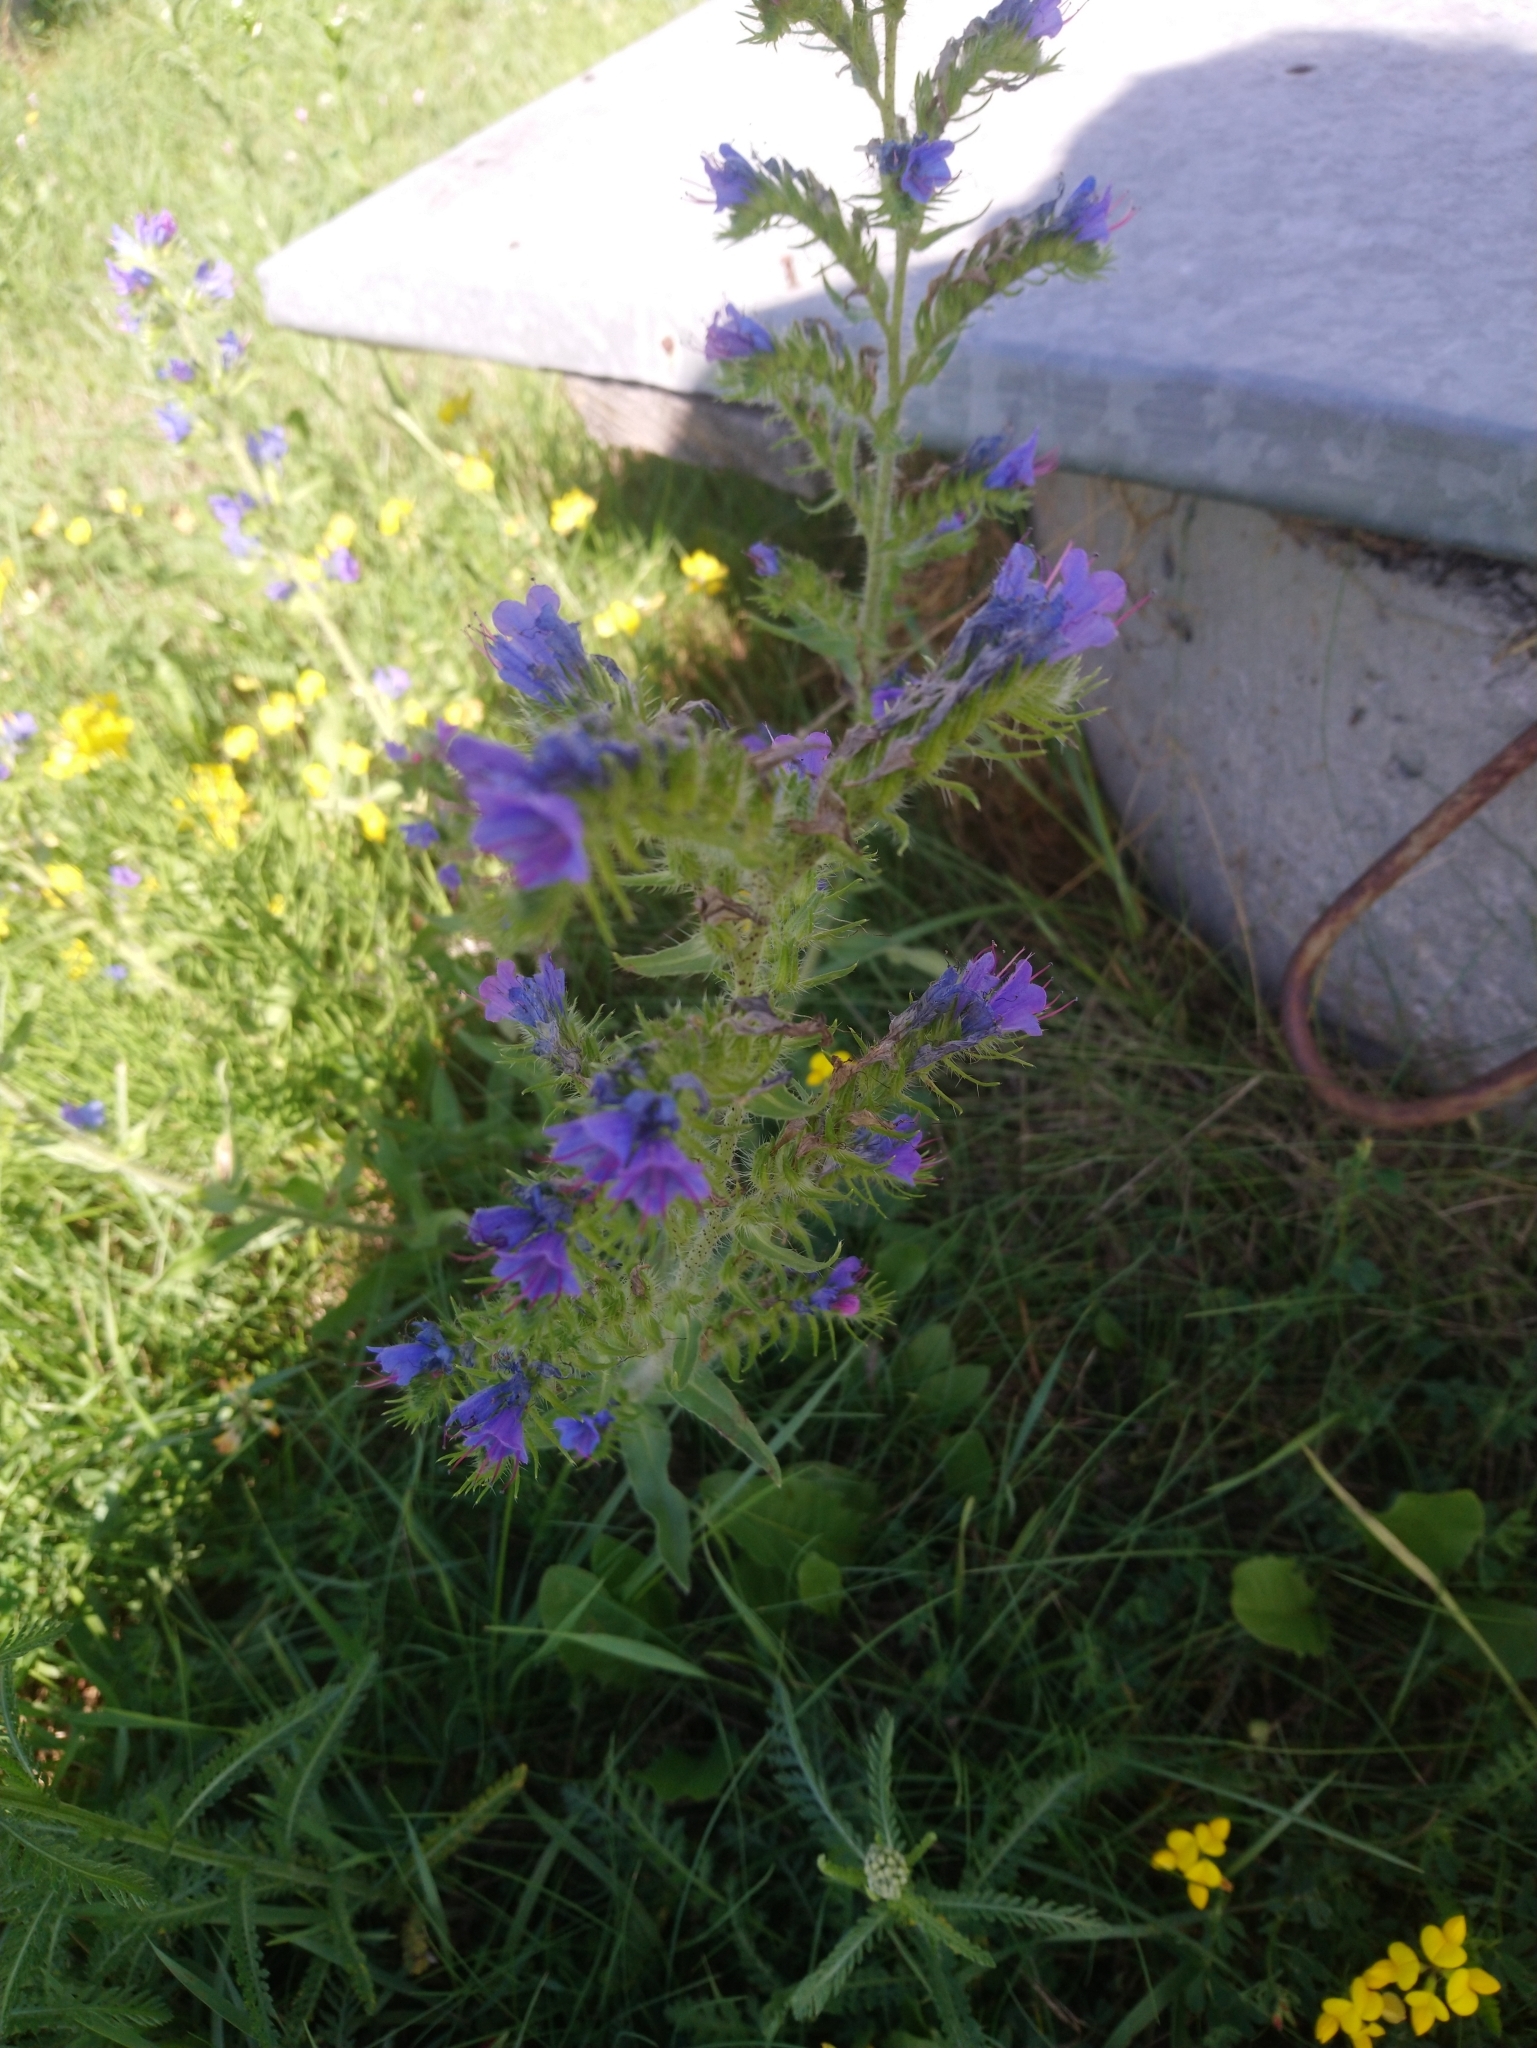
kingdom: Plantae
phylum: Tracheophyta
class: Magnoliopsida
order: Boraginales
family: Boraginaceae
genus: Echium
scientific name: Echium vulgare
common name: Common viper's bugloss
